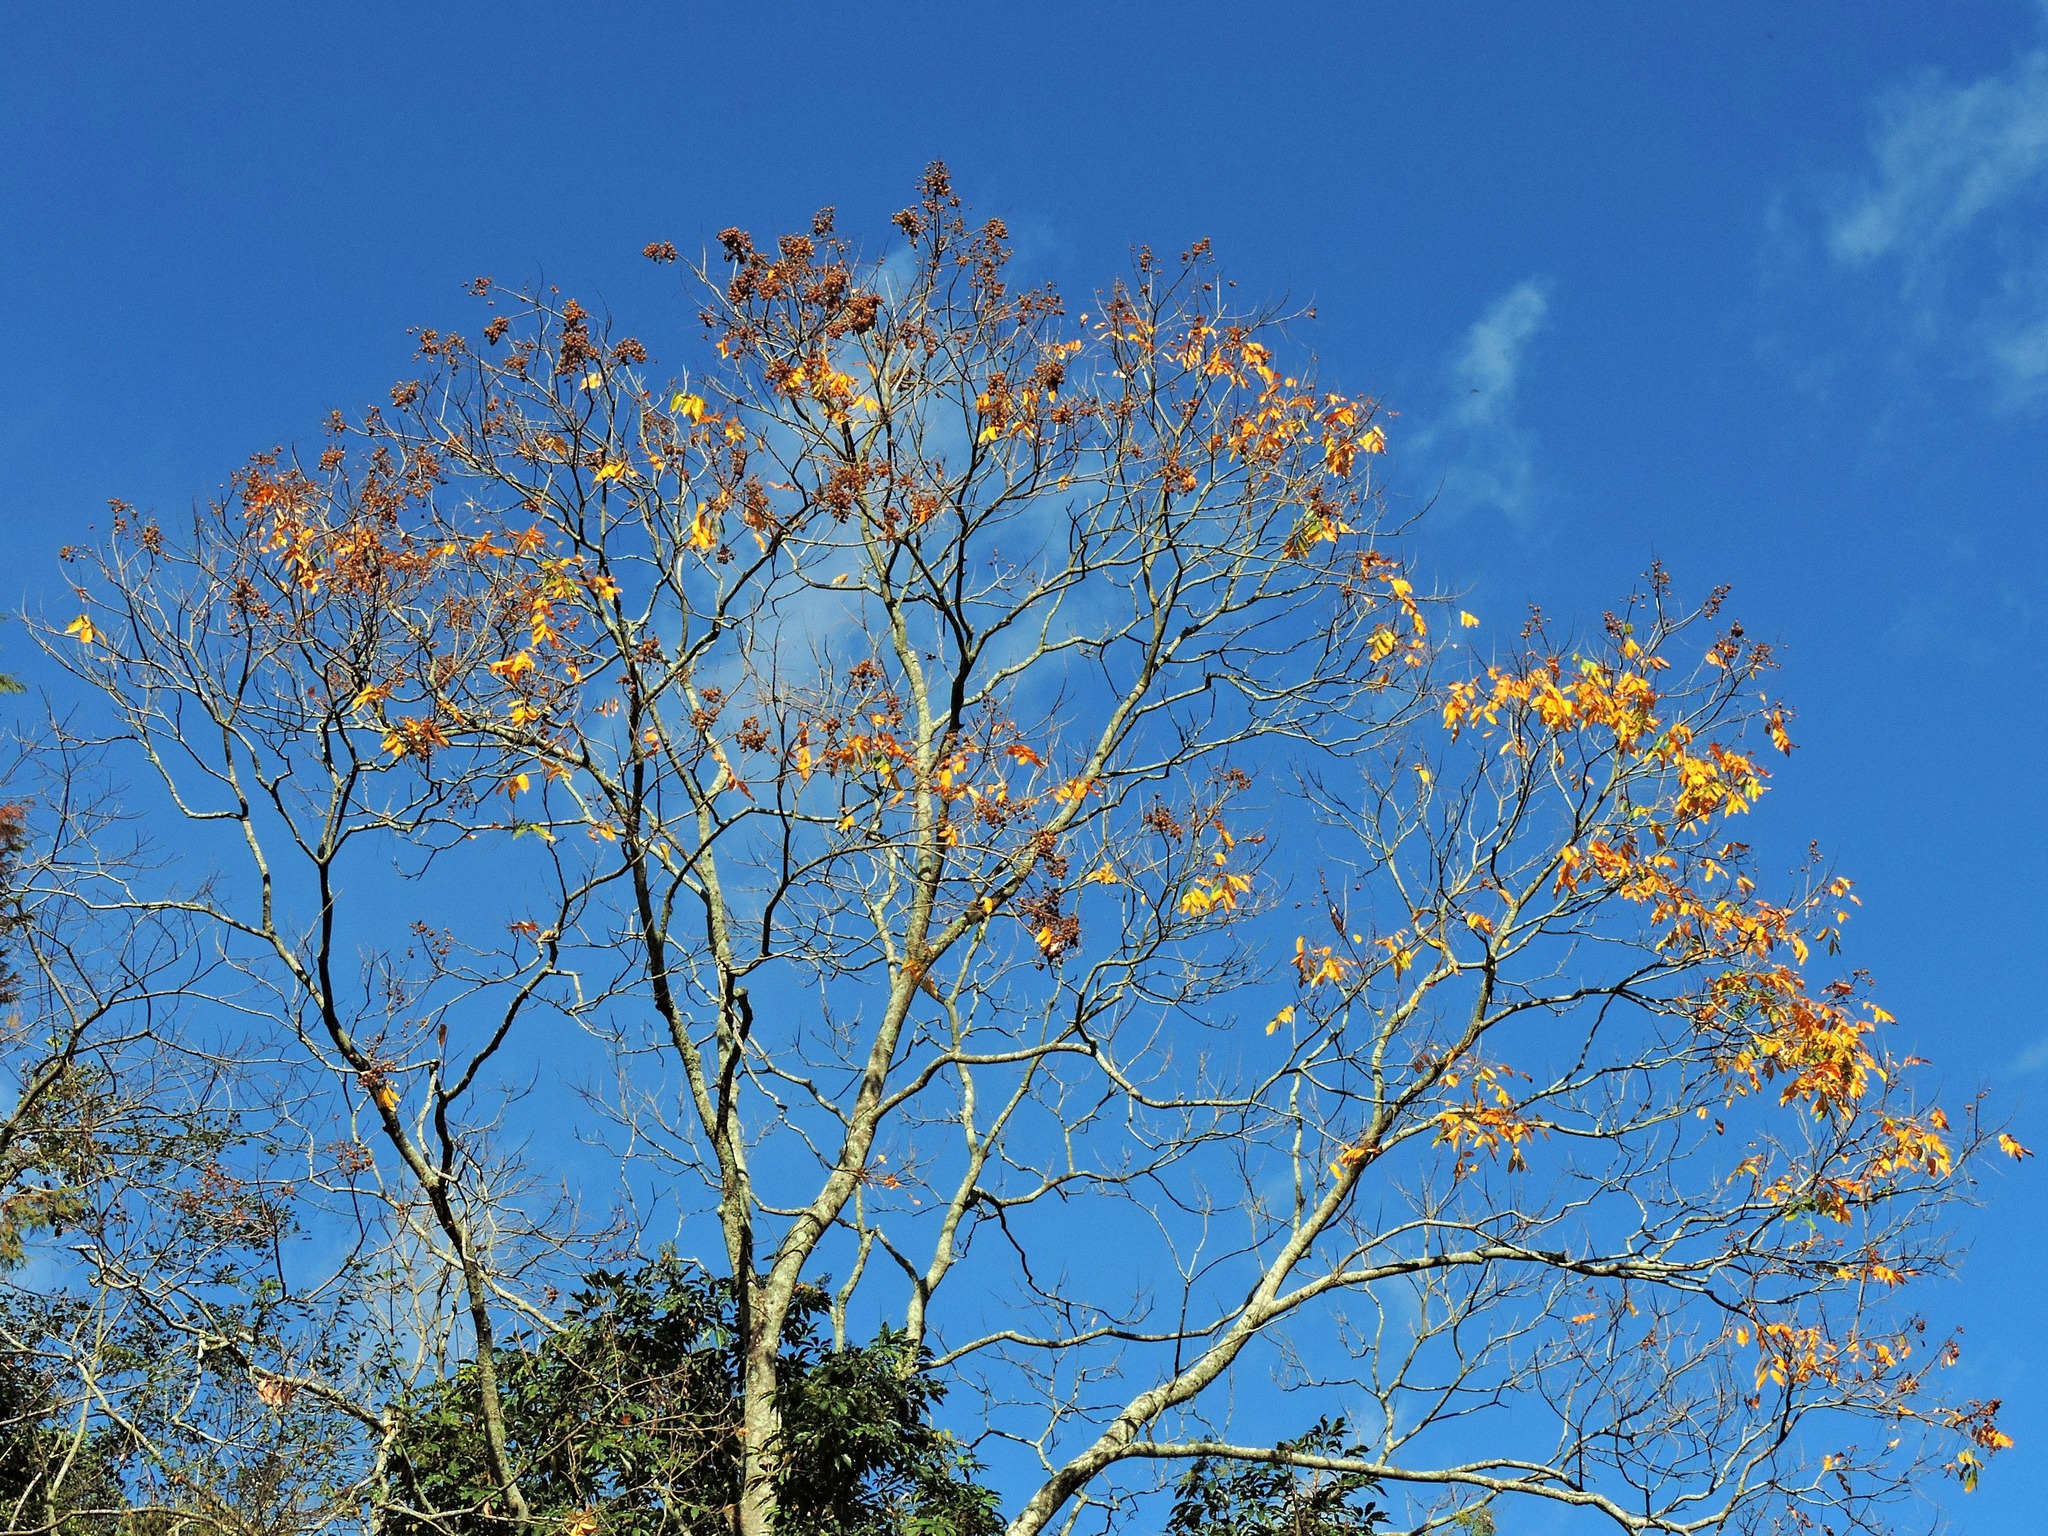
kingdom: Plantae
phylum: Tracheophyta
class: Magnoliopsida
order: Sapindales
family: Sapindaceae
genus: Sapindus
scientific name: Sapindus mukorossi
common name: Chinese soapberry
